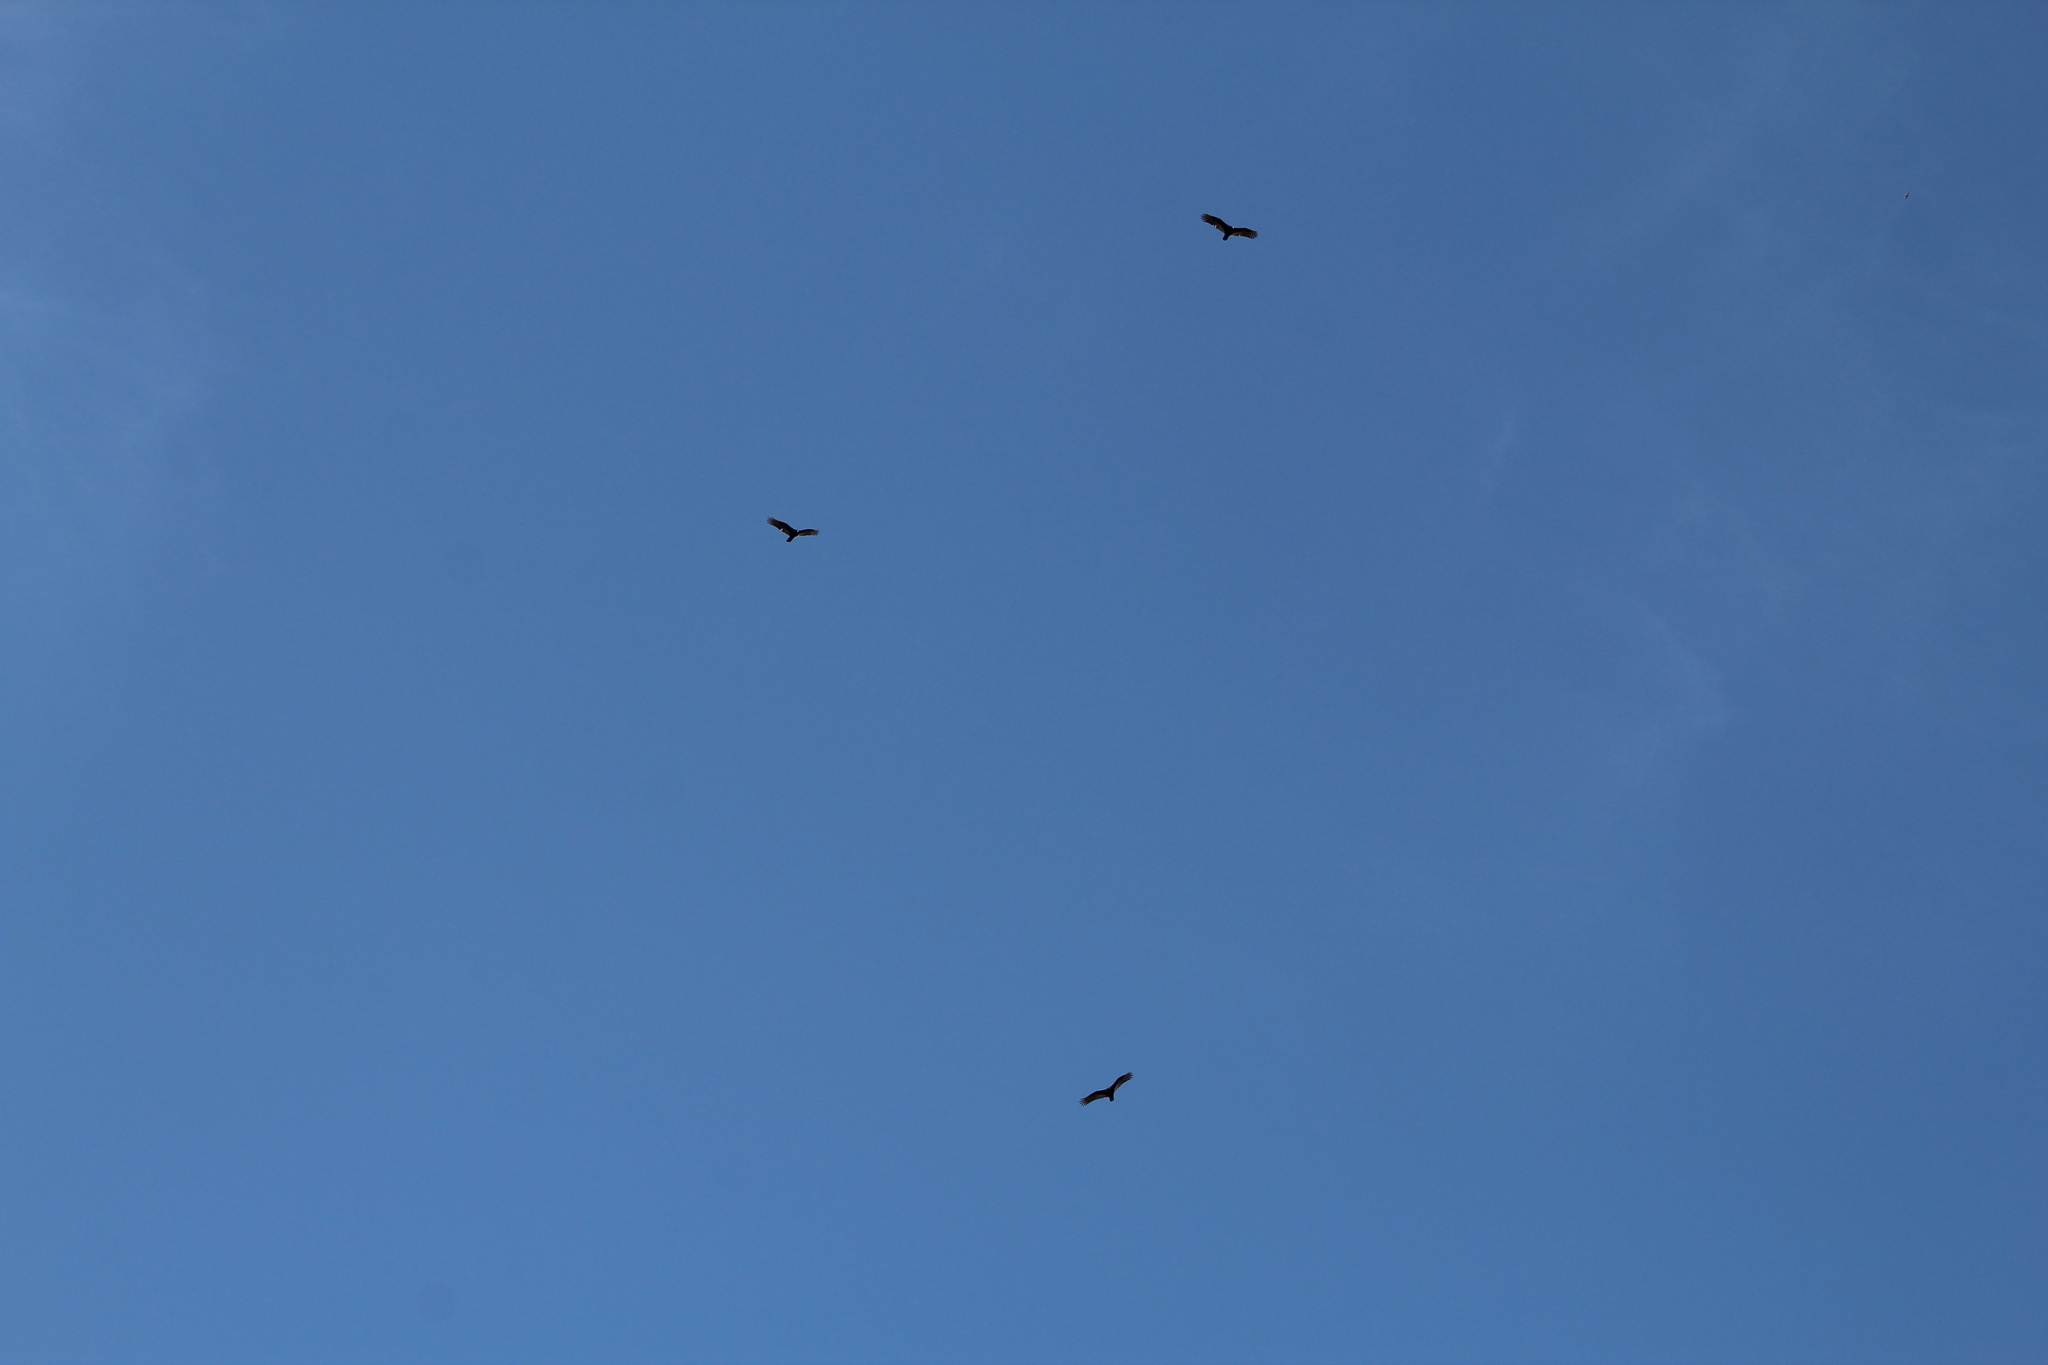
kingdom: Animalia
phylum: Chordata
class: Aves
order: Accipitriformes
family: Cathartidae
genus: Cathartes
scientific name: Cathartes aura
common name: Turkey vulture
